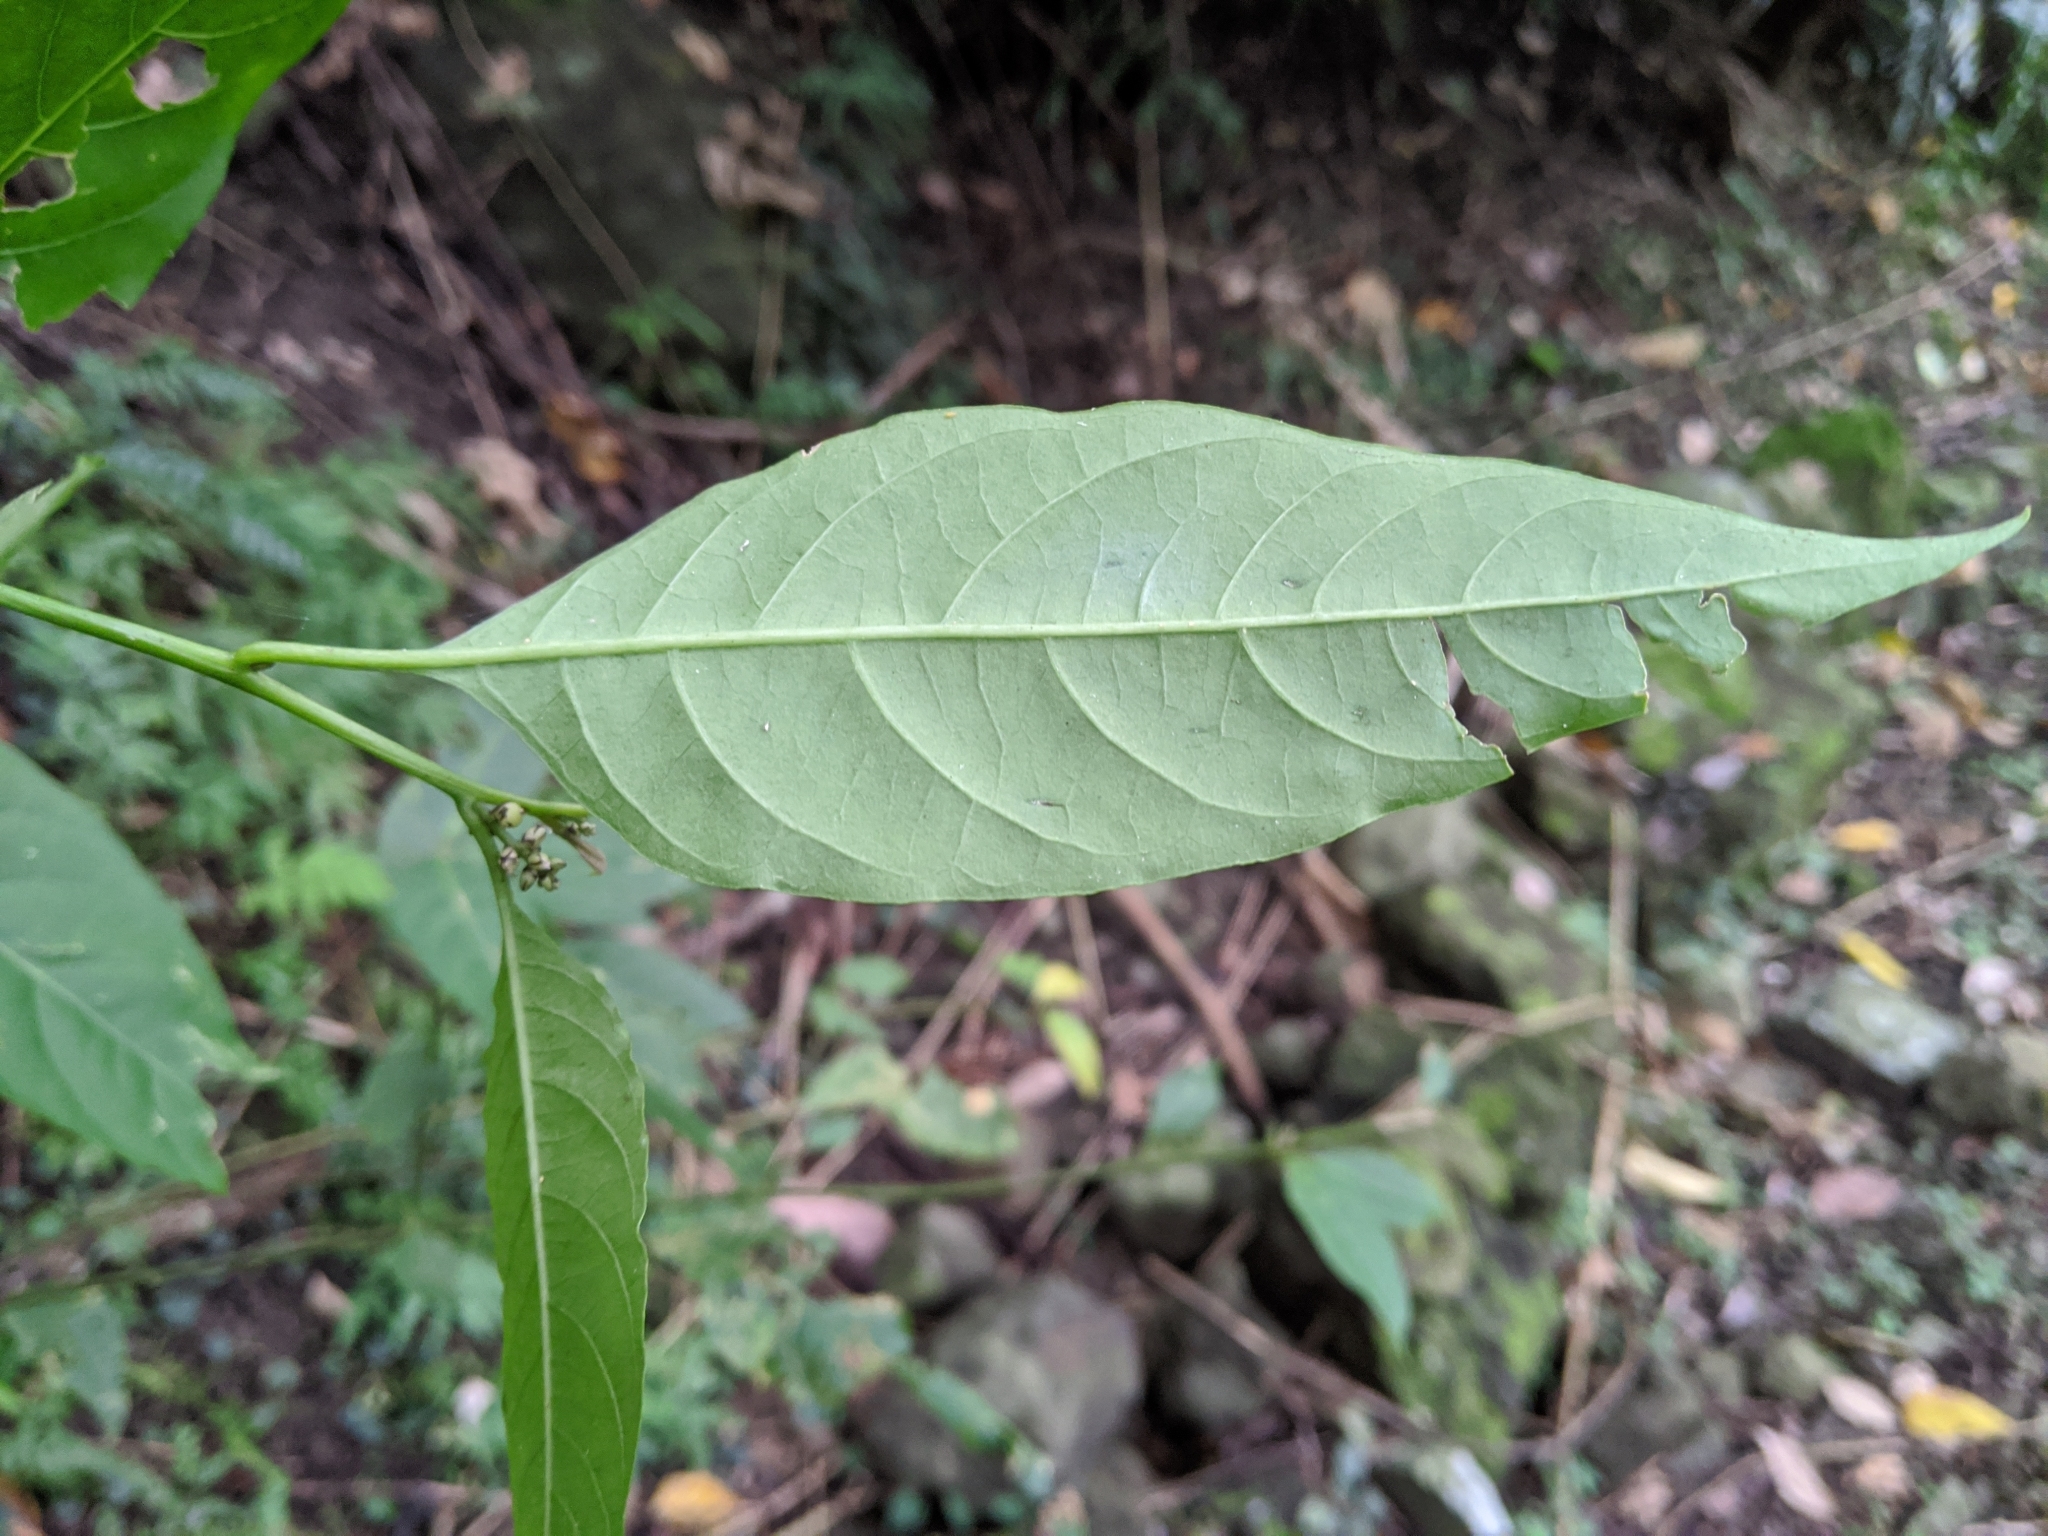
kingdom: Plantae
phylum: Tracheophyta
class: Magnoliopsida
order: Caryophyllales
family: Amaranthaceae
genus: Deeringia
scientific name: Deeringia polysperma
